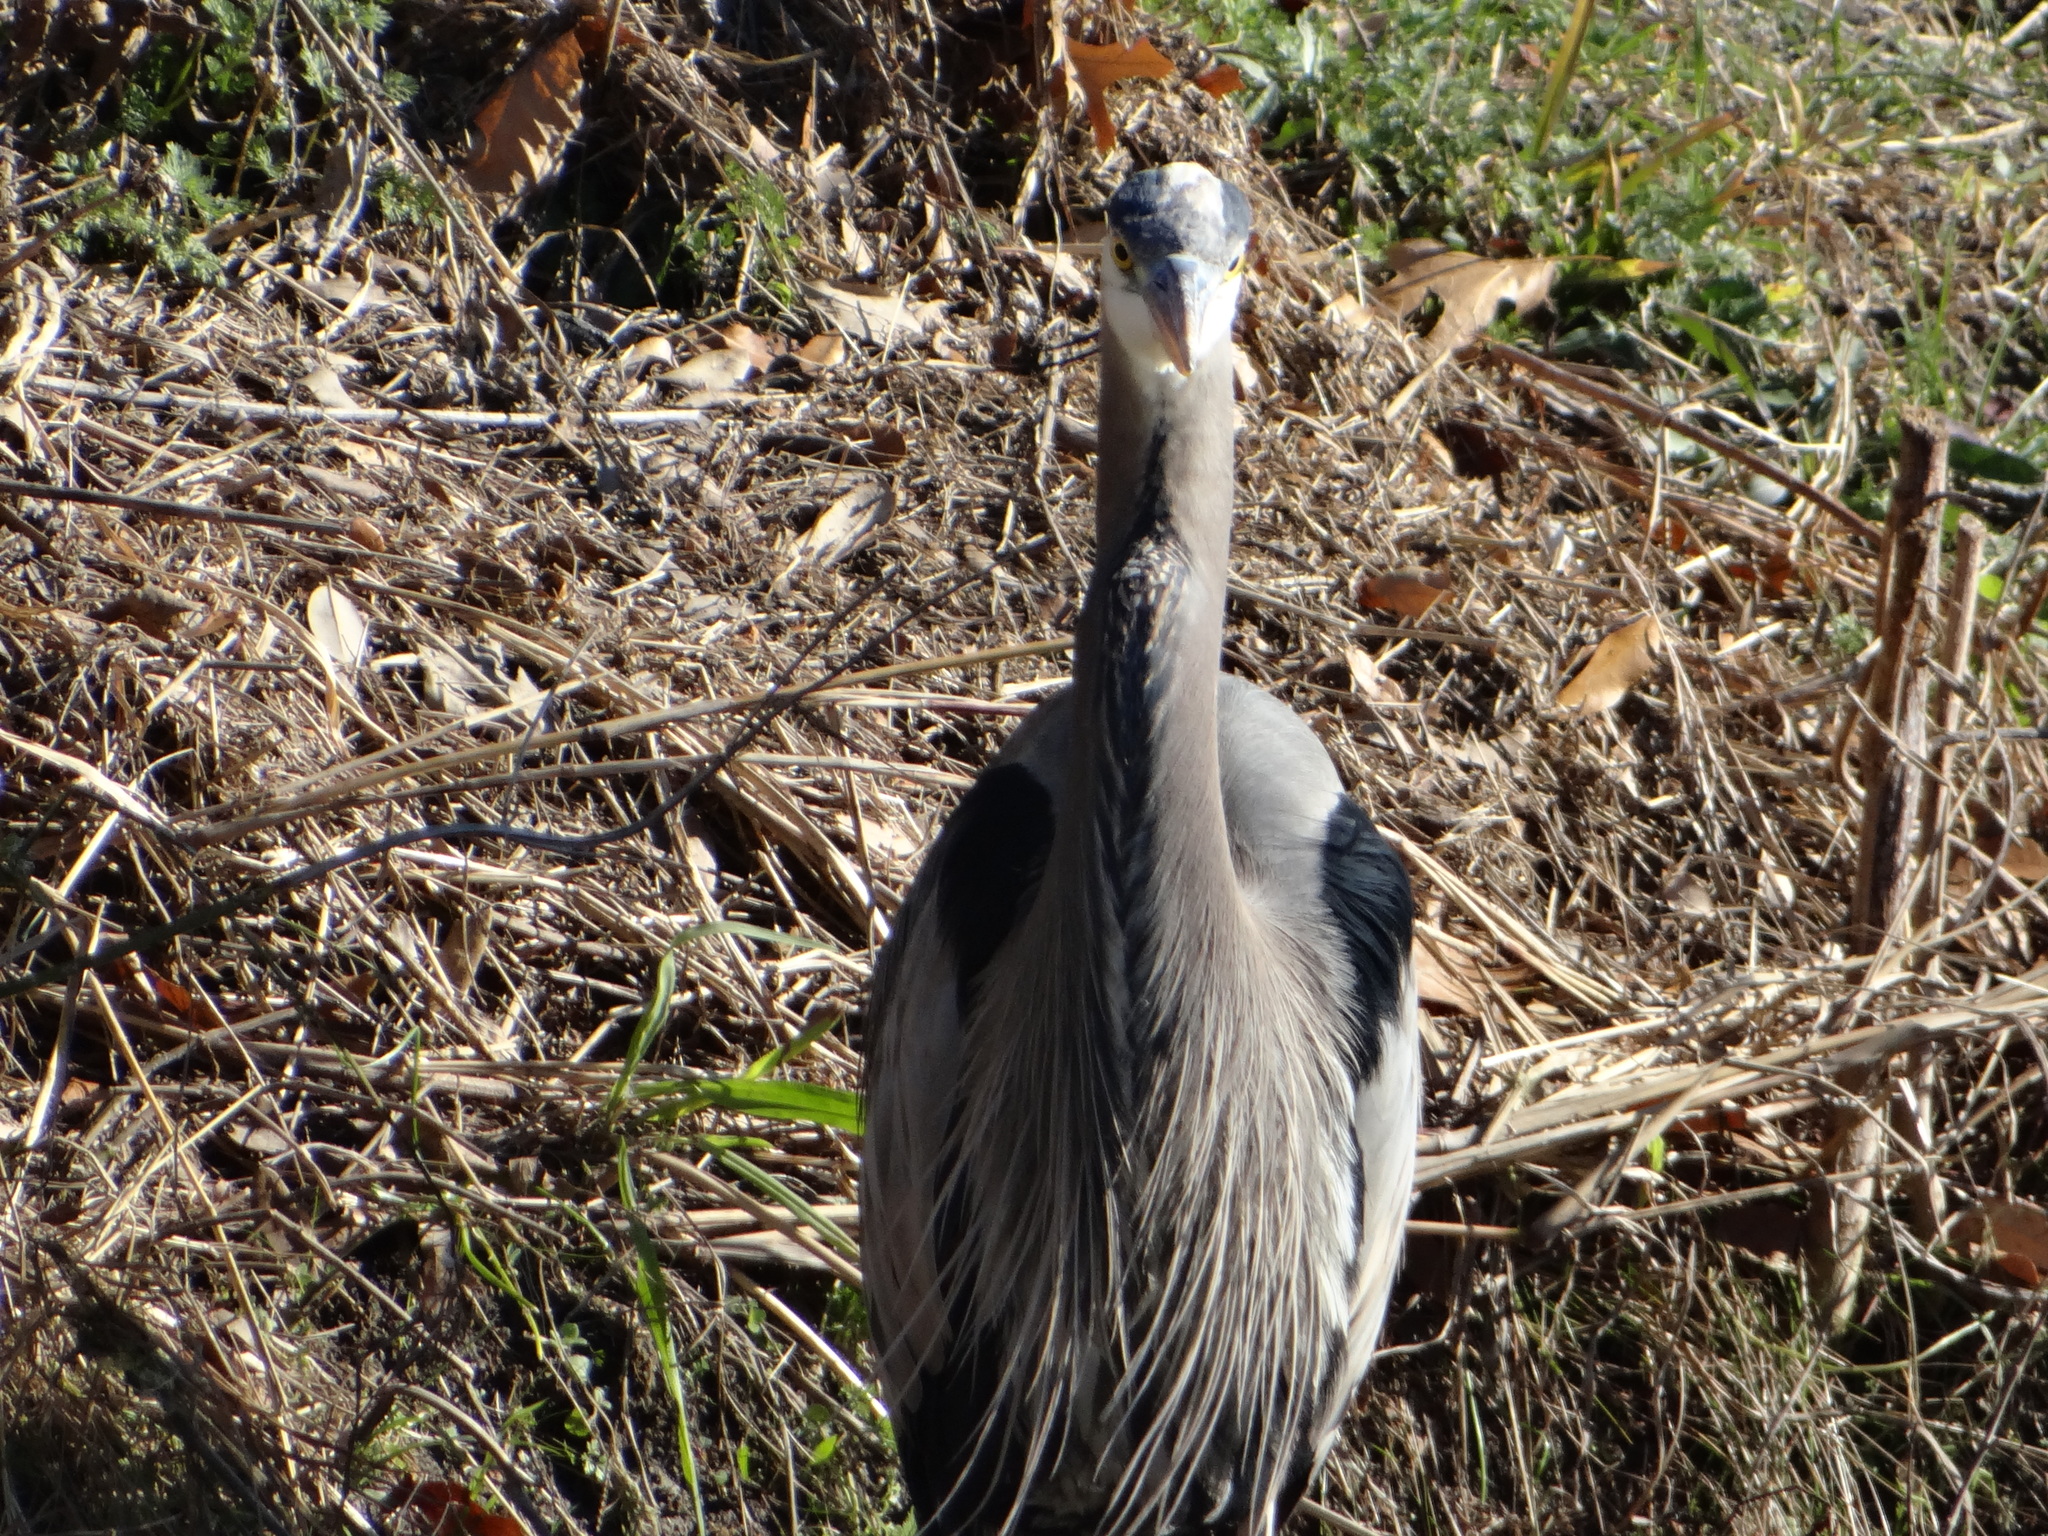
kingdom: Animalia
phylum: Chordata
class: Aves
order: Pelecaniformes
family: Ardeidae
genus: Ardea
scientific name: Ardea herodias
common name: Great blue heron
